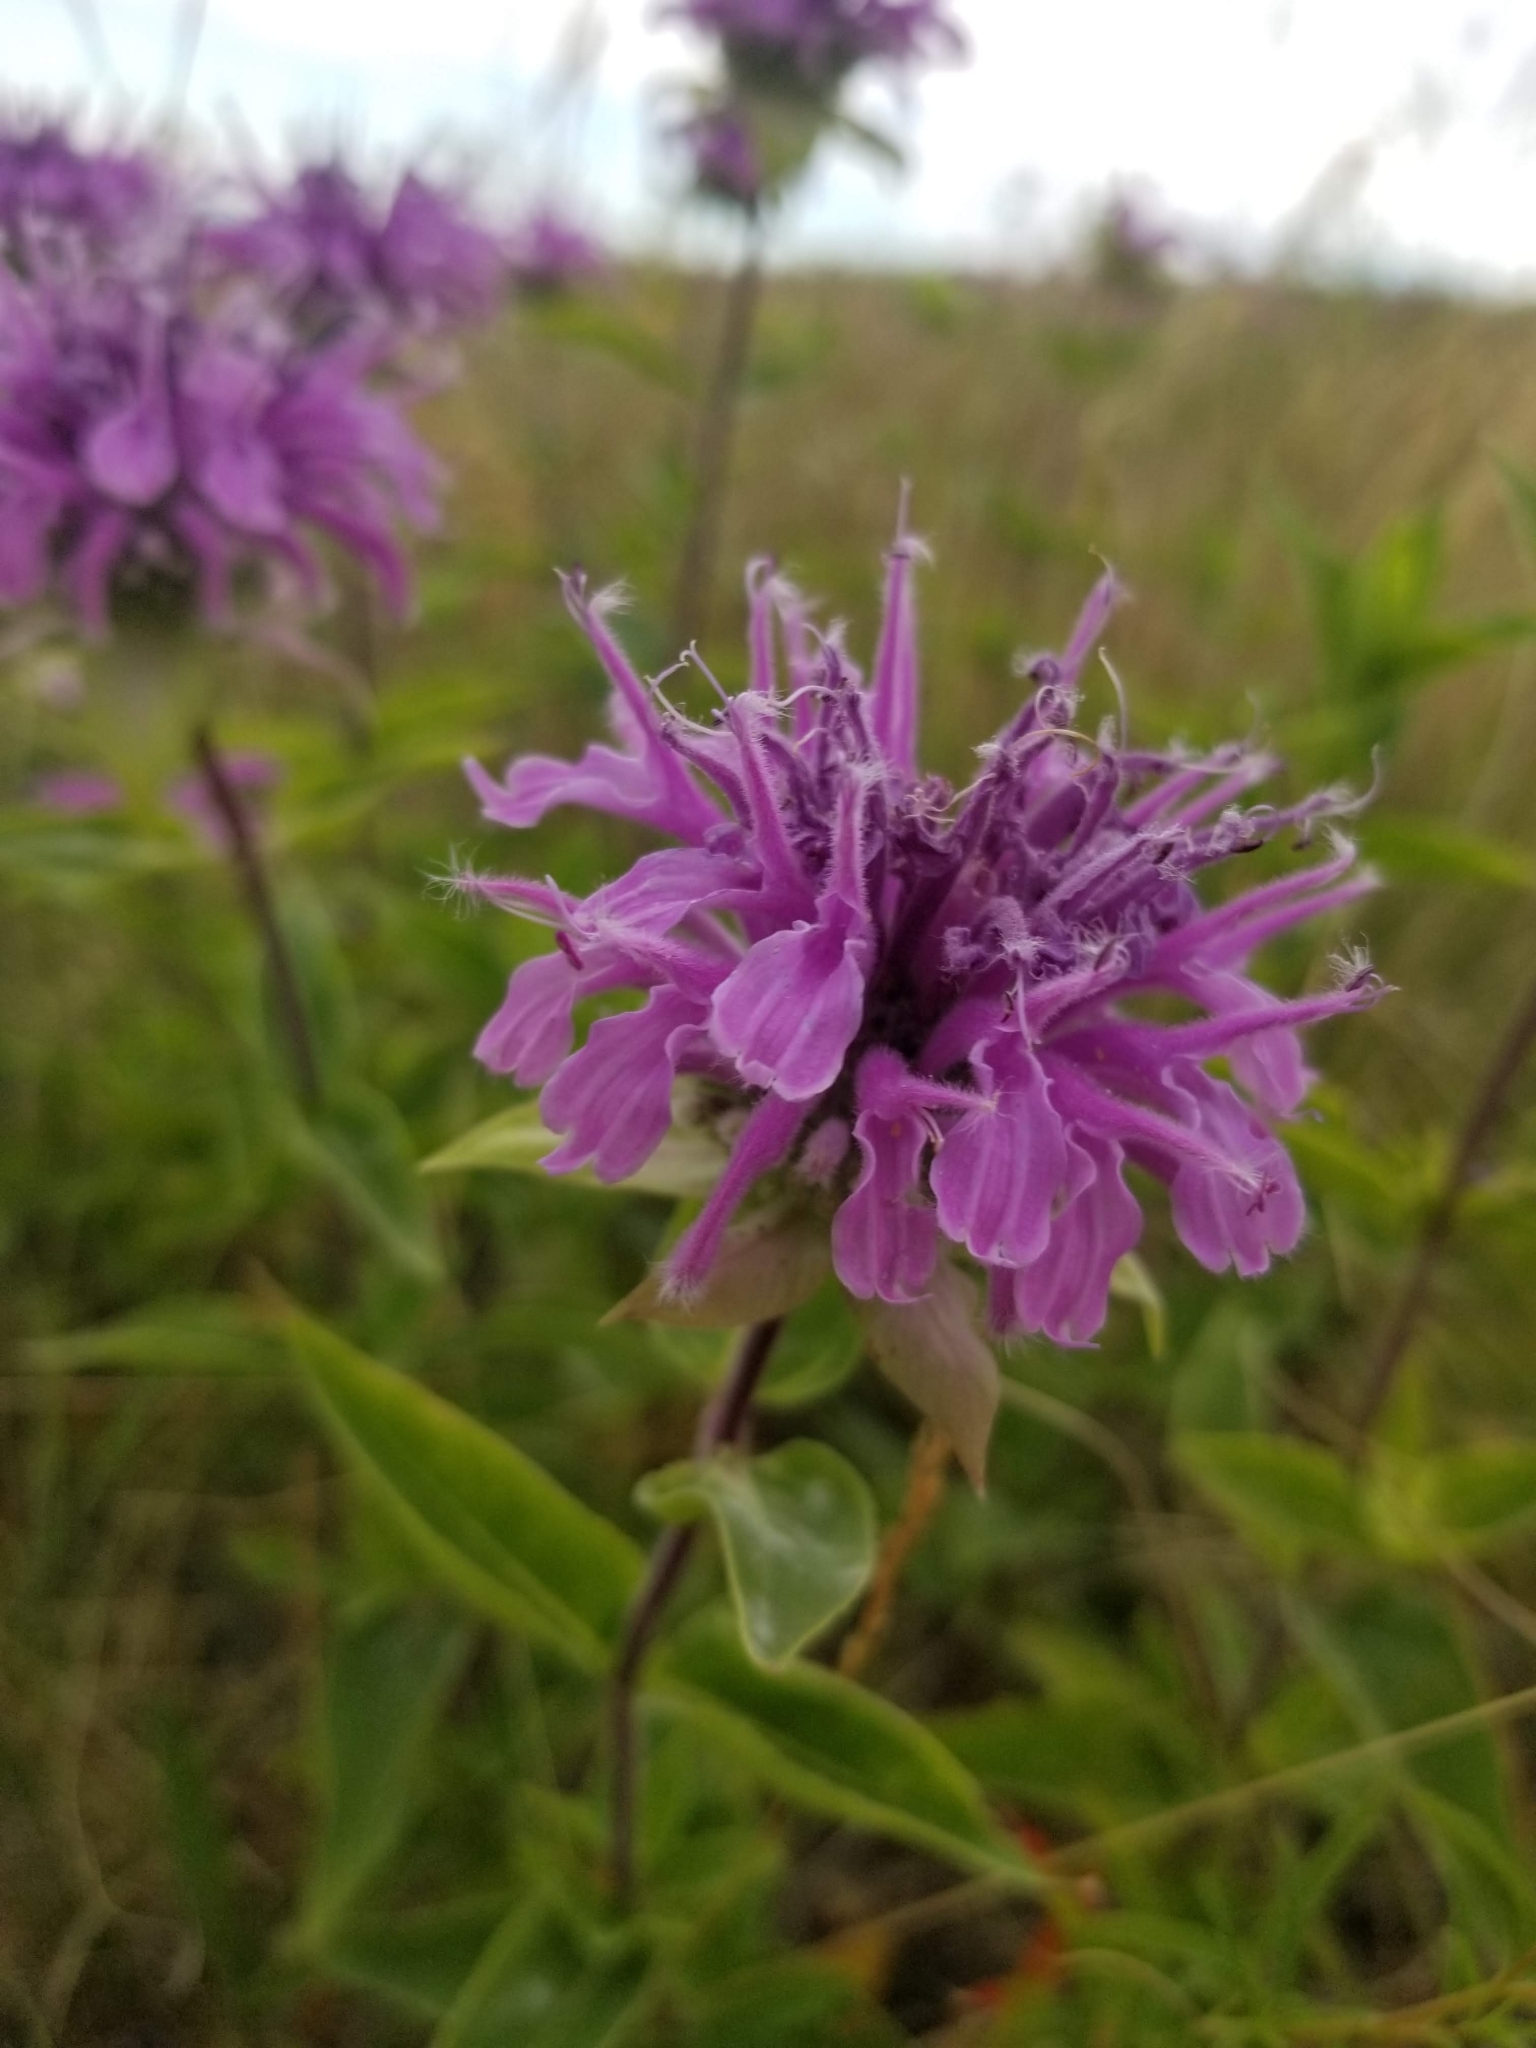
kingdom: Plantae
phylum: Tracheophyta
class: Magnoliopsida
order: Lamiales
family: Lamiaceae
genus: Monarda
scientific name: Monarda fistulosa
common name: Purple beebalm
